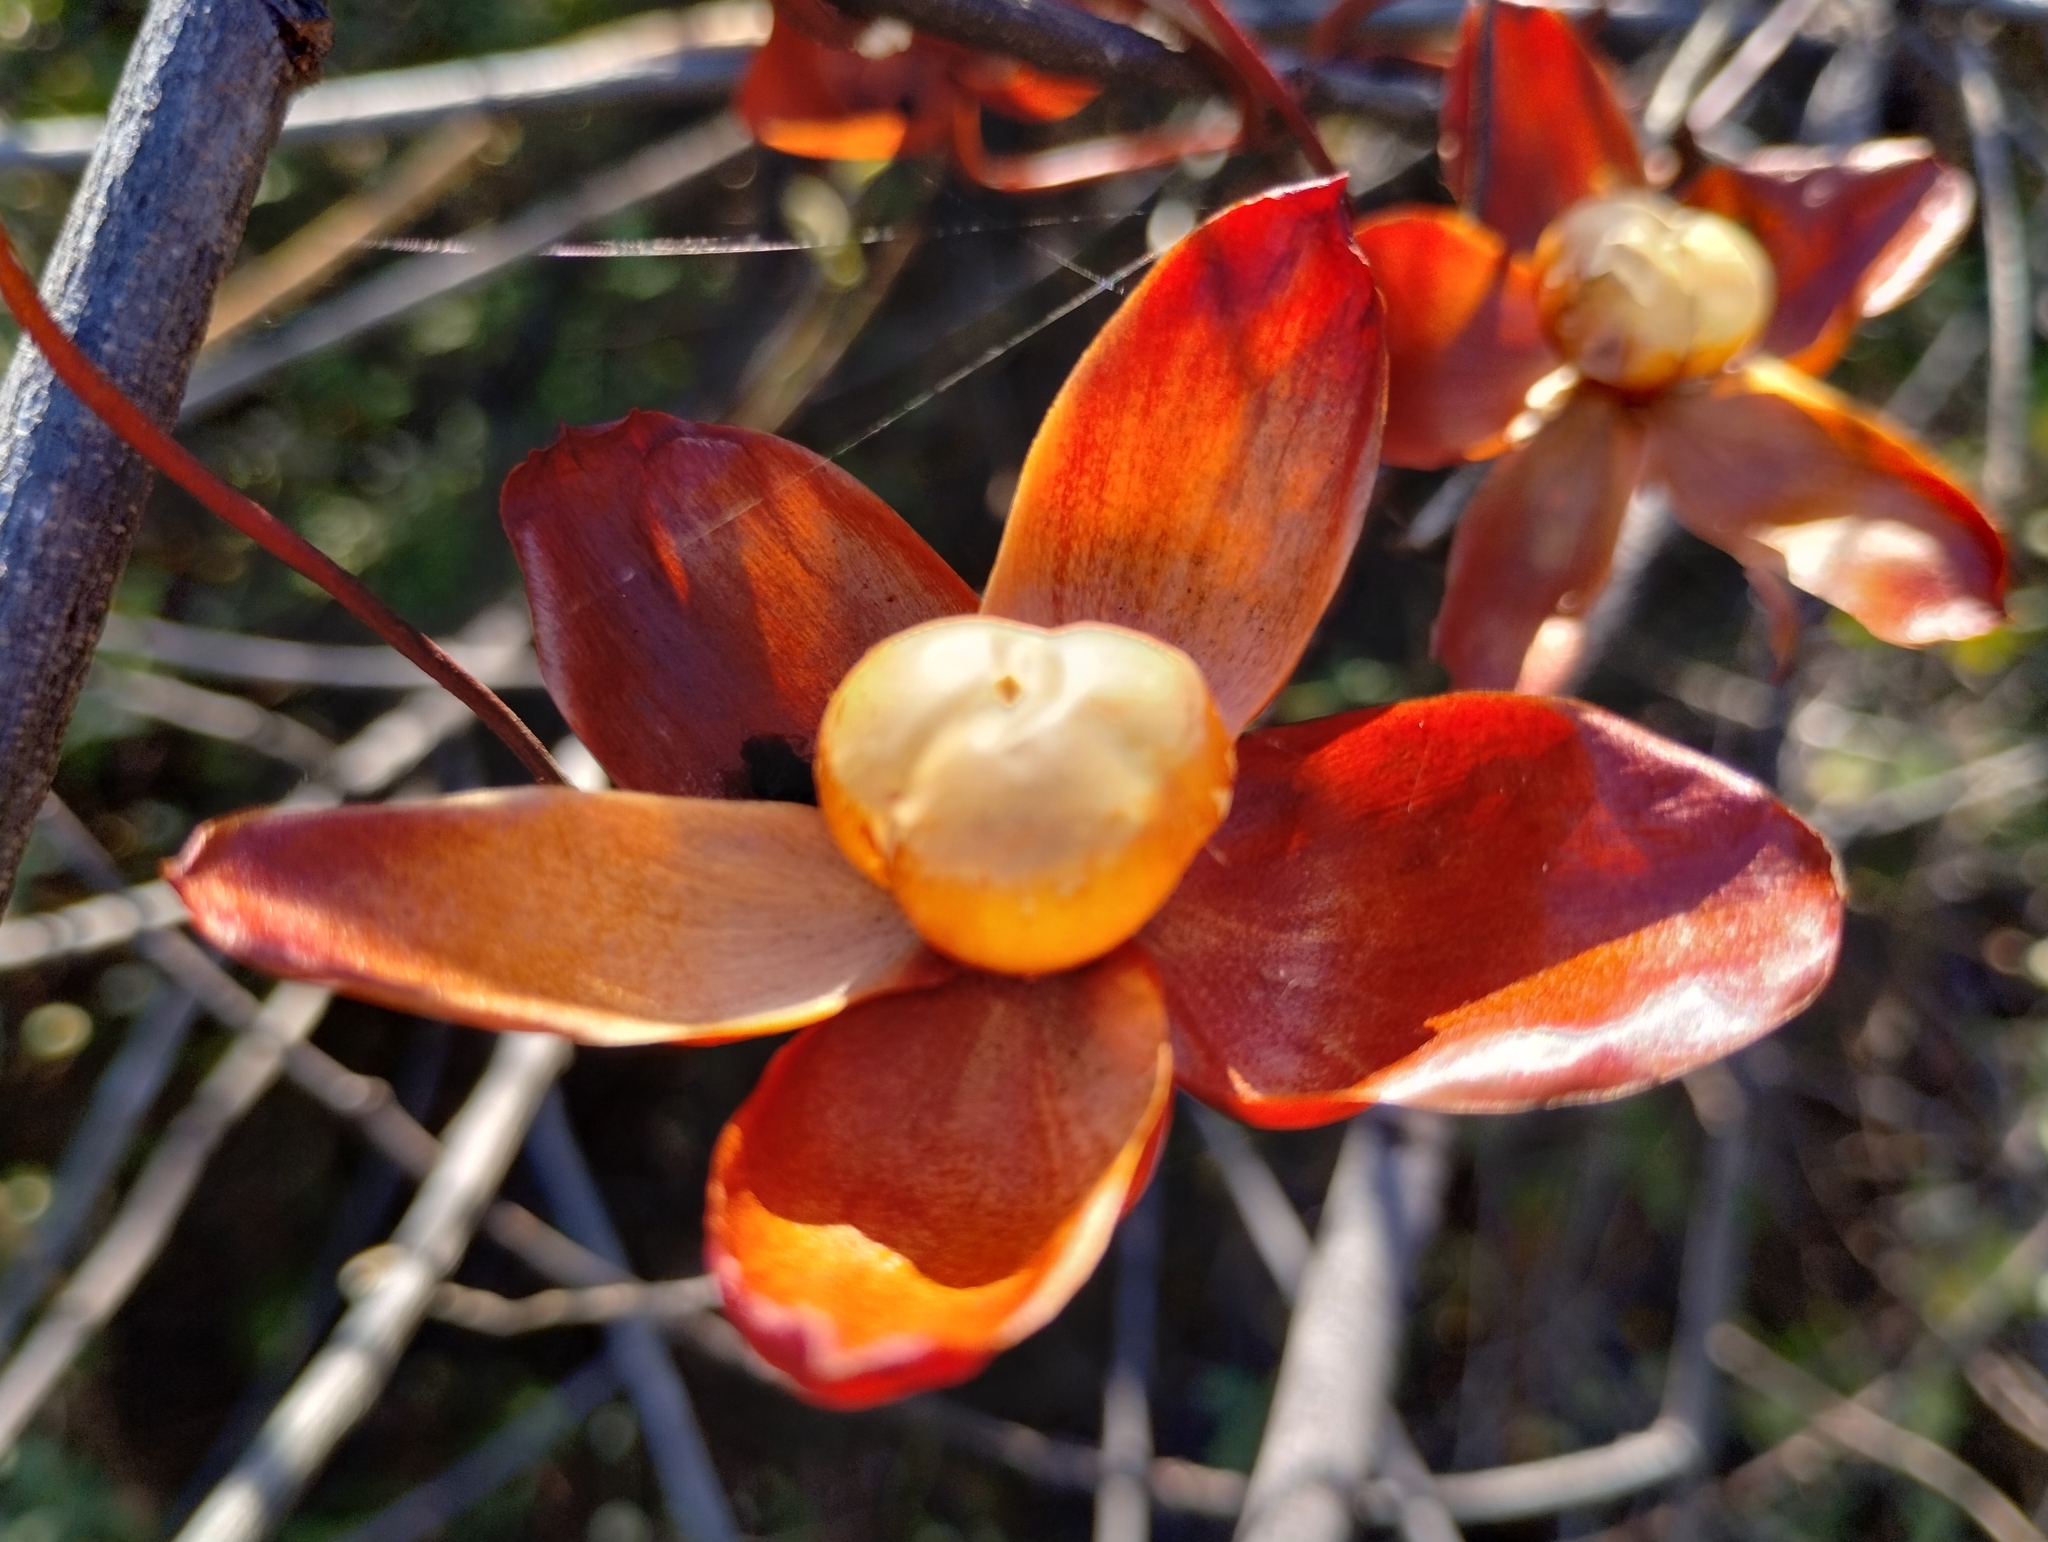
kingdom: Plantae
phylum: Tracheophyta
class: Magnoliopsida
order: Solanales
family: Convolvulaceae
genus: Operculina
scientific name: Operculina hamiltonii
